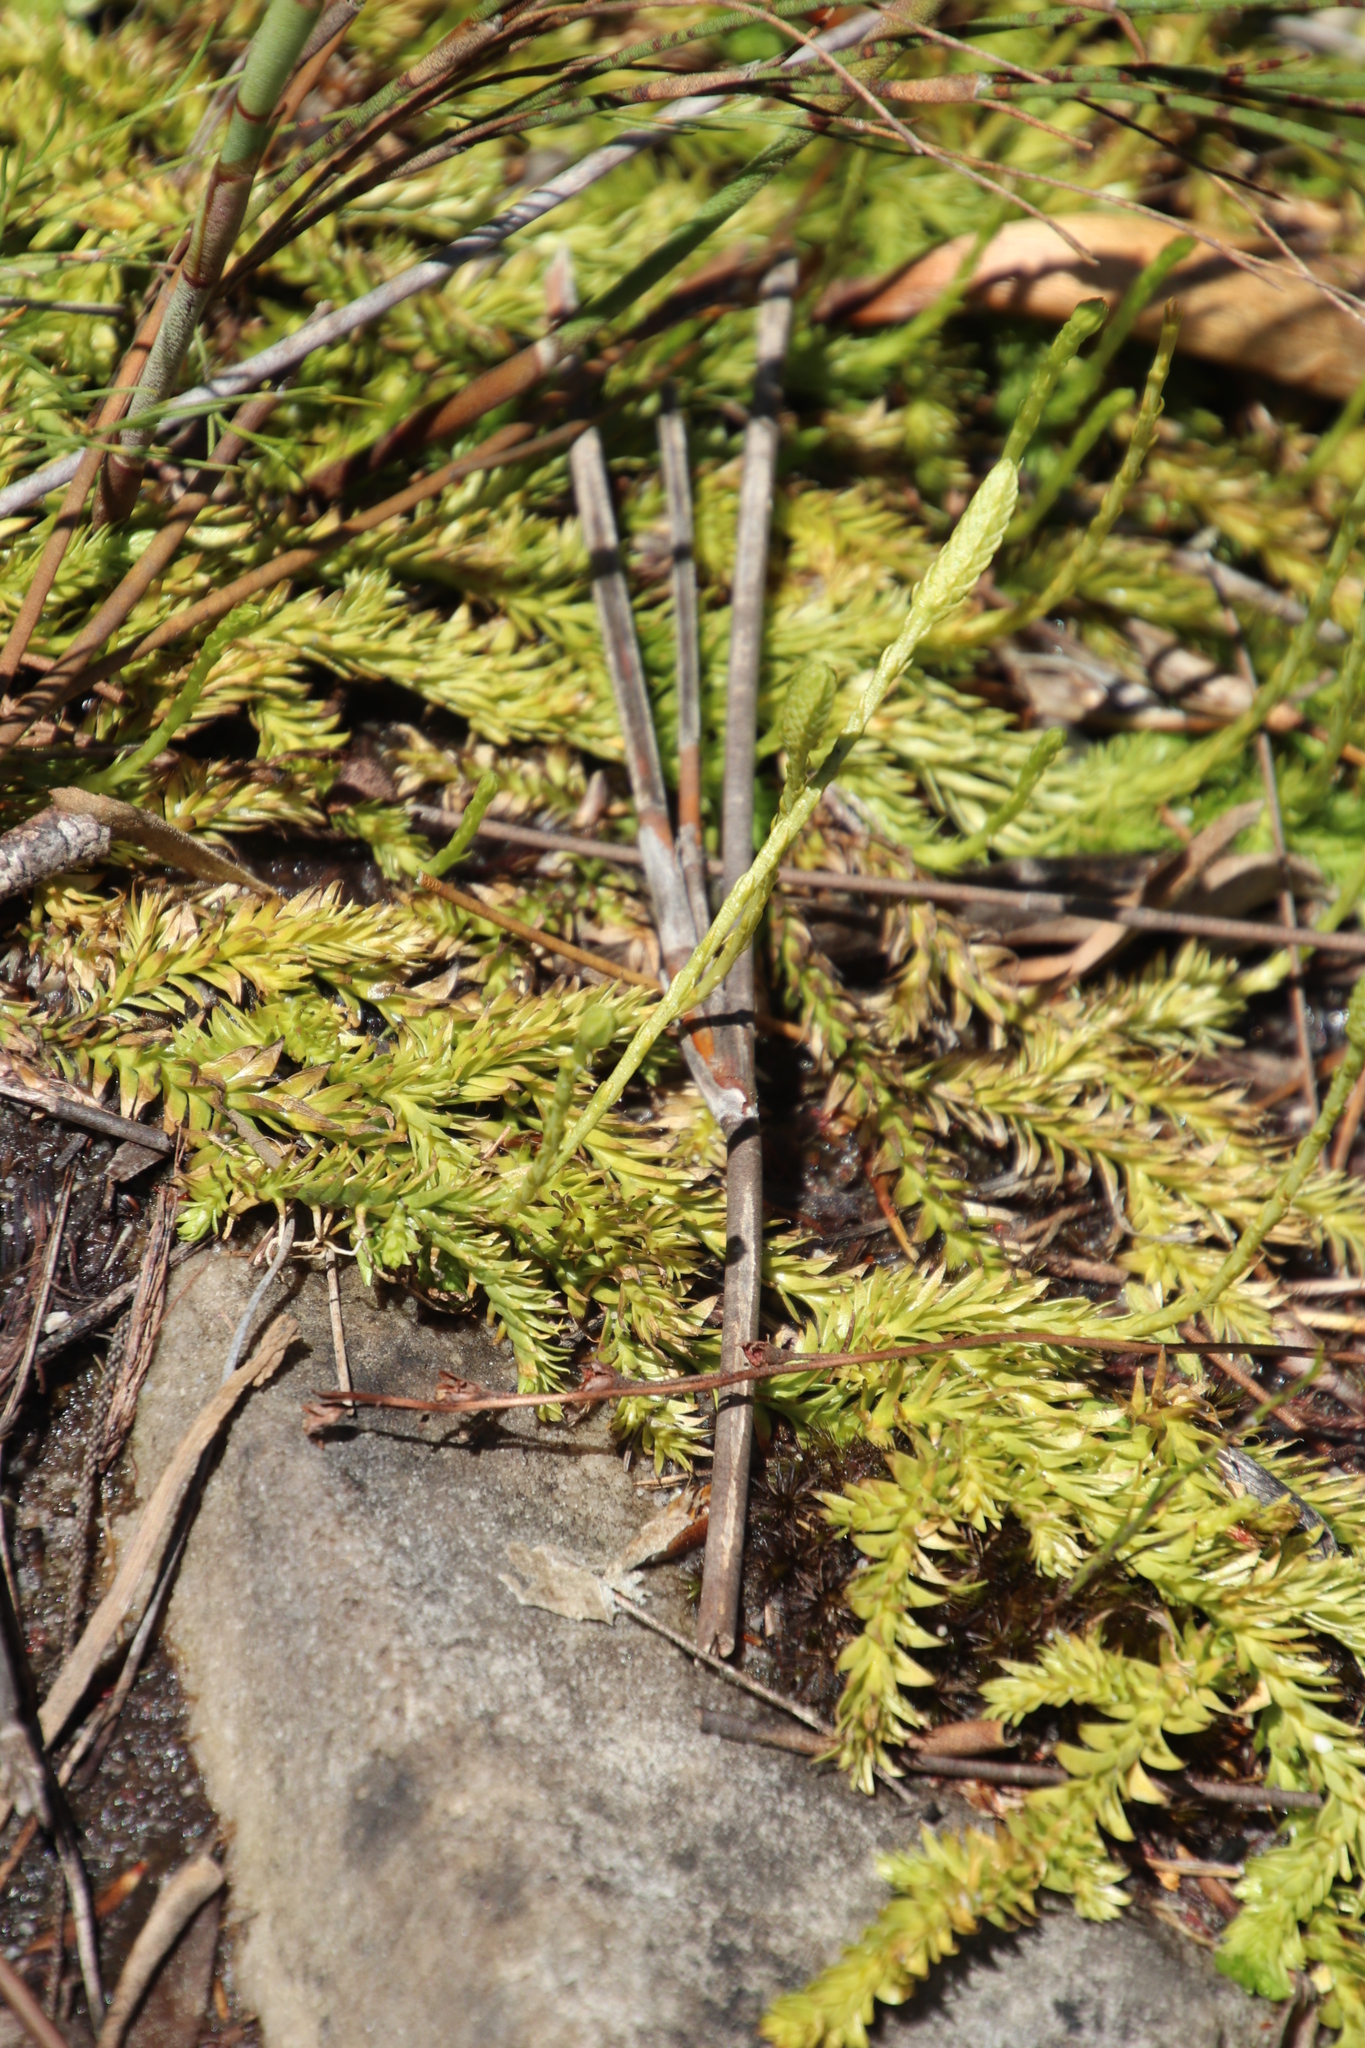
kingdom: Plantae
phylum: Tracheophyta
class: Lycopodiopsida
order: Lycopodiales
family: Lycopodiaceae
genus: Pseudolycopodiella
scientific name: Pseudolycopodiella caroliniana
